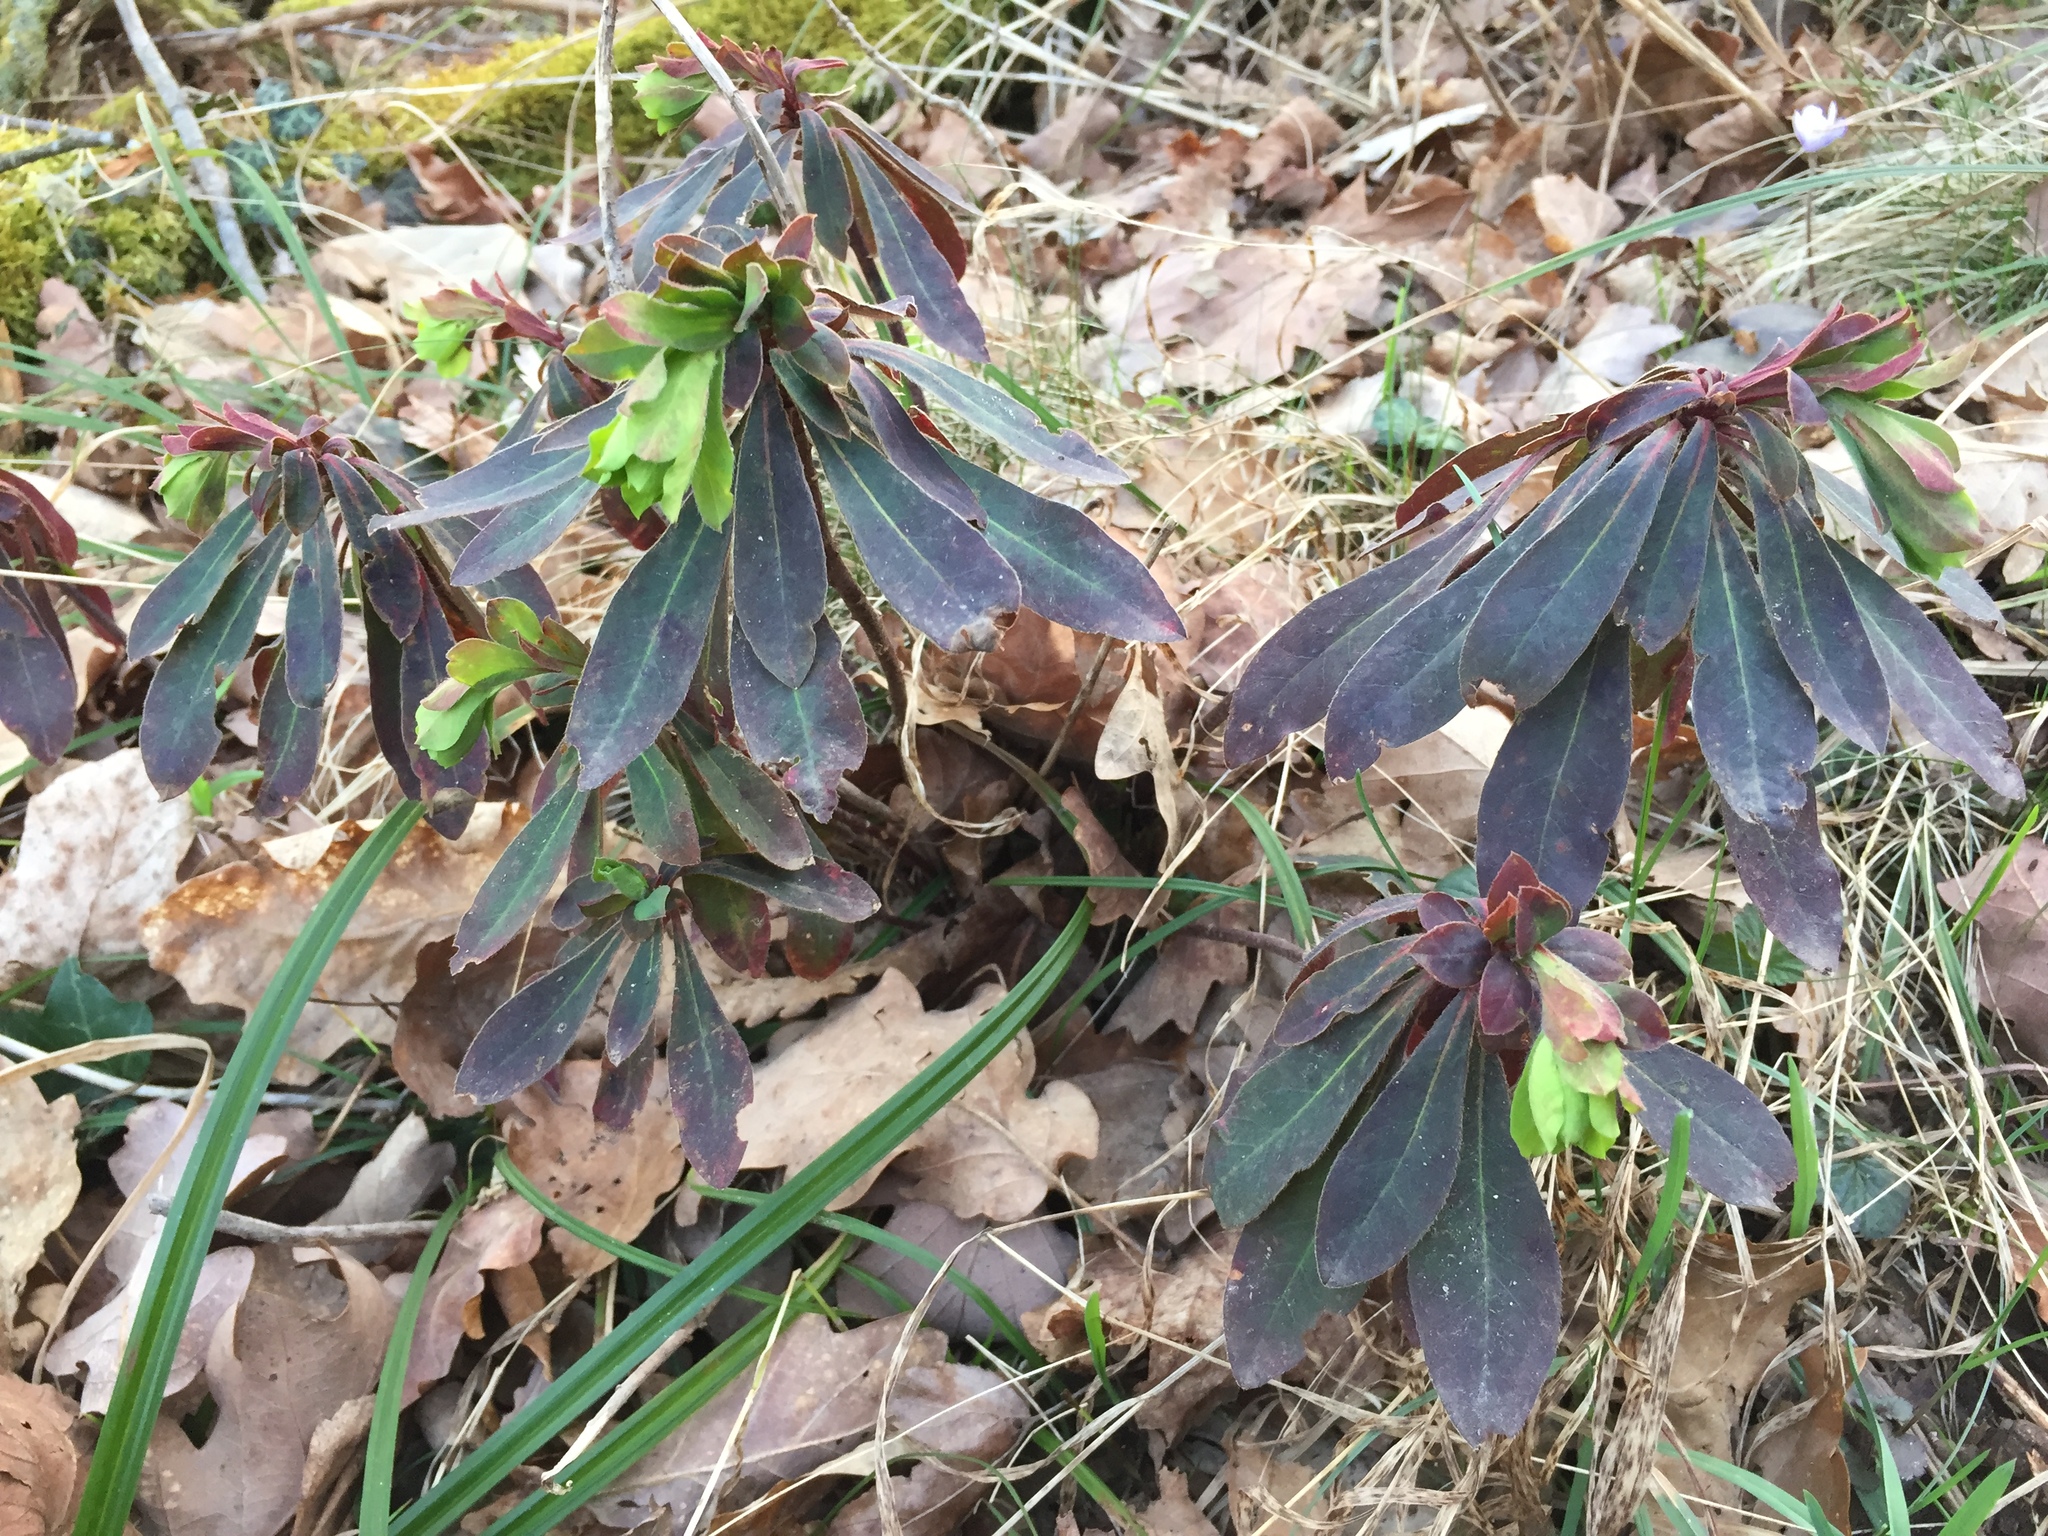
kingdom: Plantae
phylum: Tracheophyta
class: Magnoliopsida
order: Malpighiales
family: Euphorbiaceae
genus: Euphorbia
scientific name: Euphorbia amygdaloides
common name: Wood spurge
